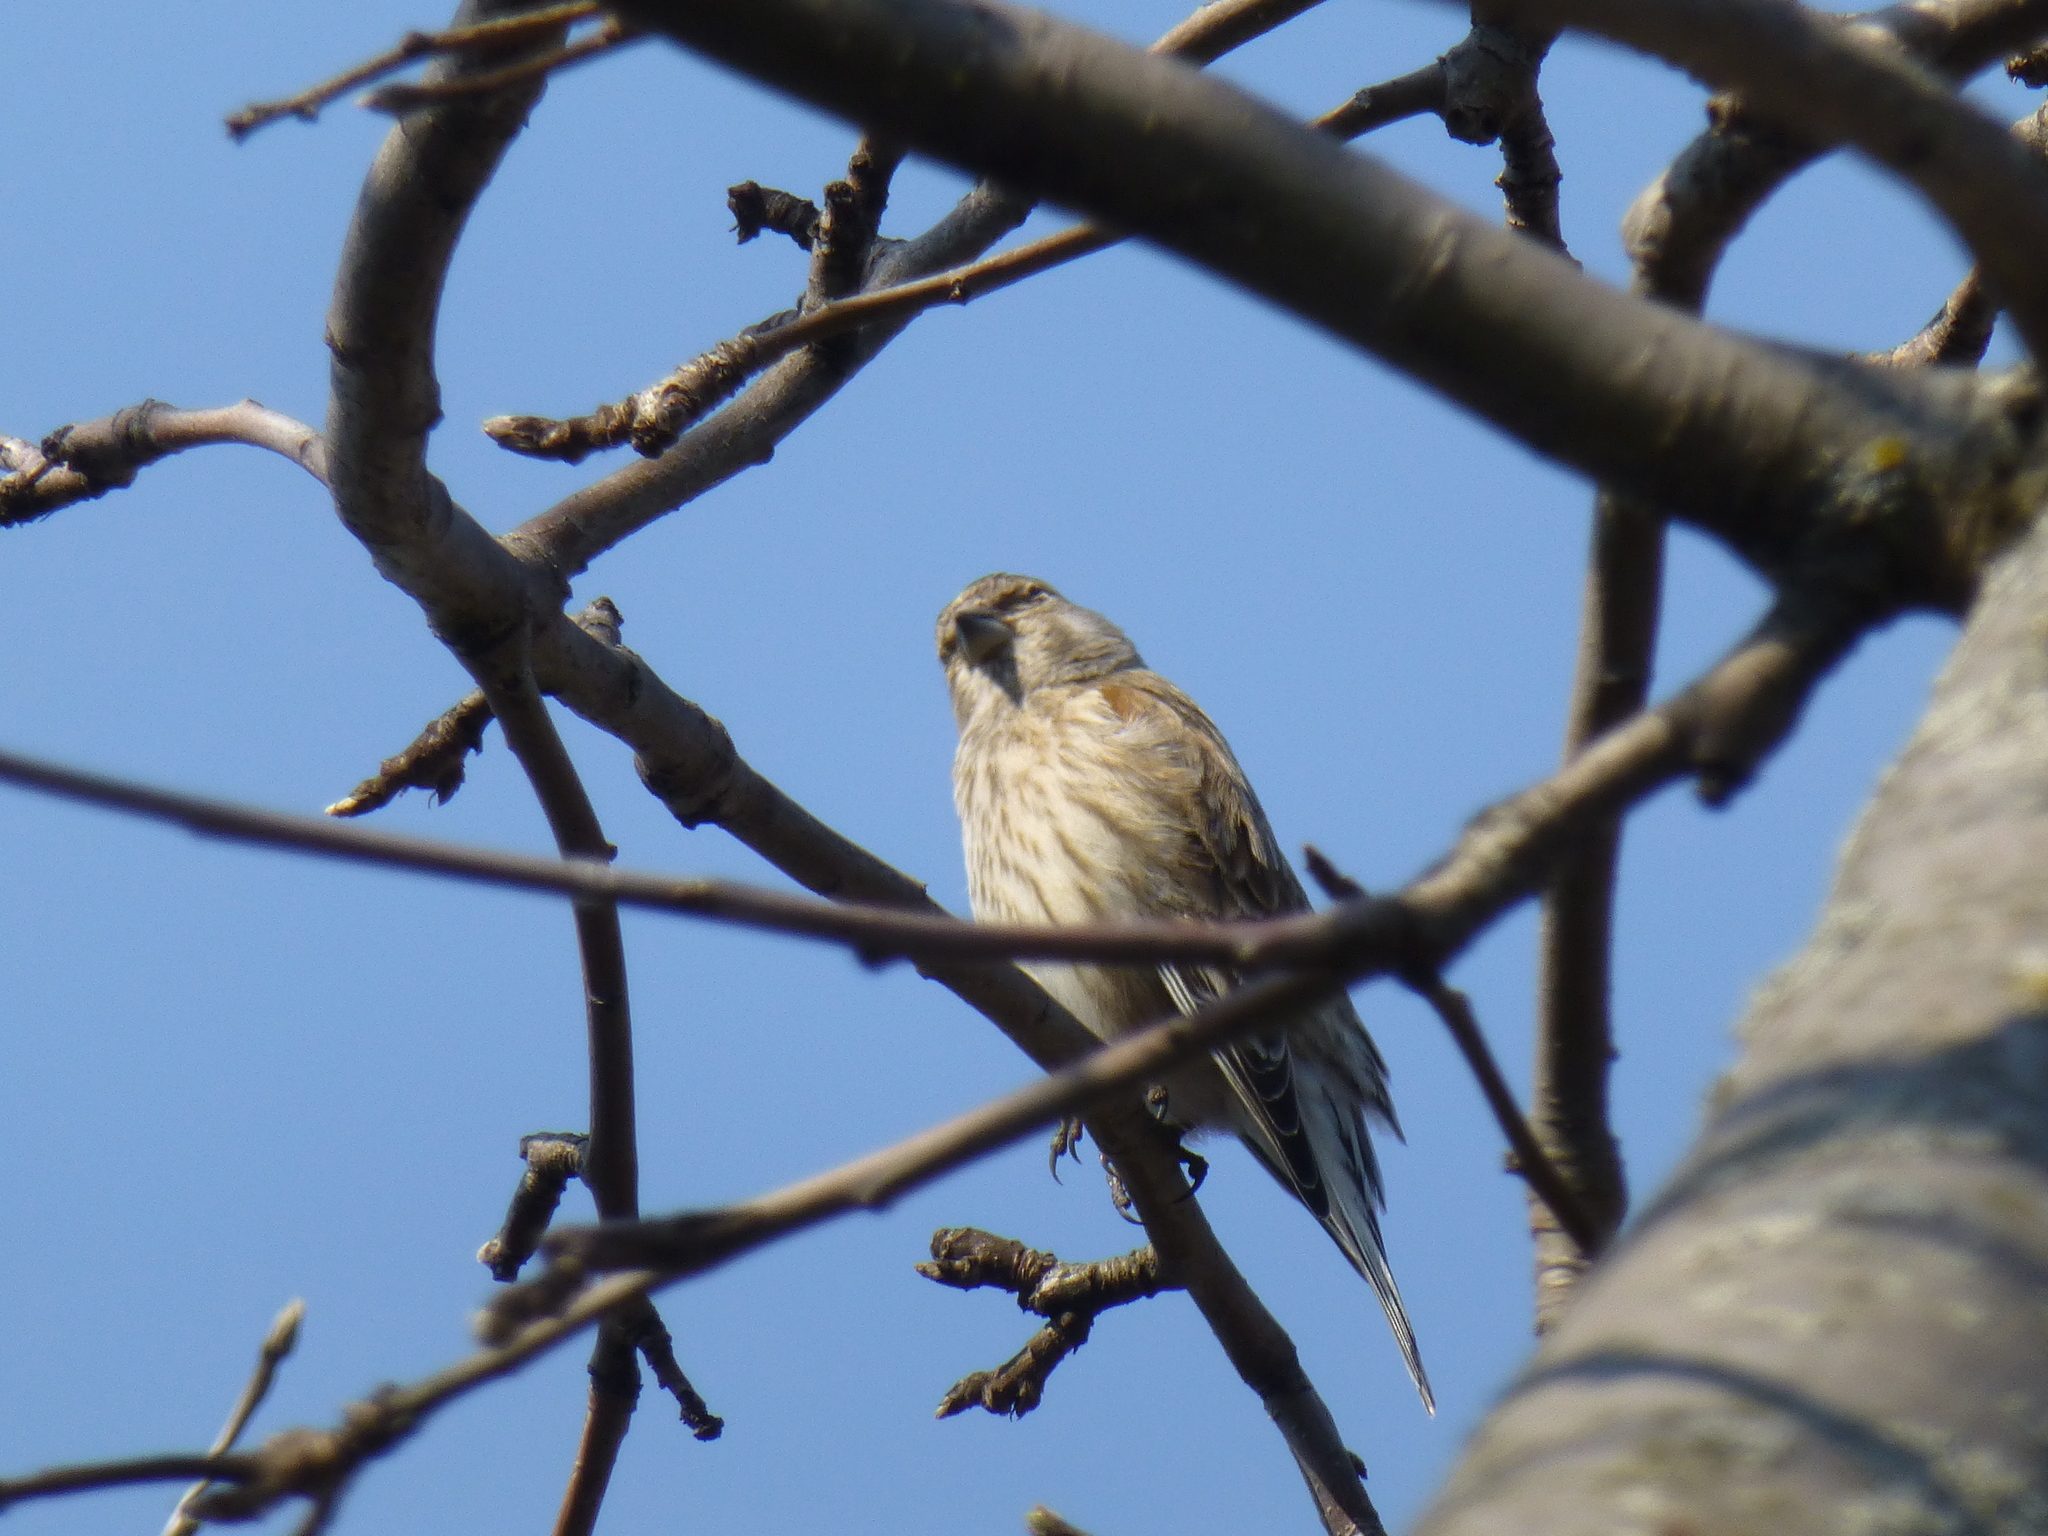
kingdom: Animalia
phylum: Chordata
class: Aves
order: Passeriformes
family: Fringillidae
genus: Linaria
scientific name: Linaria cannabina
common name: Common linnet
